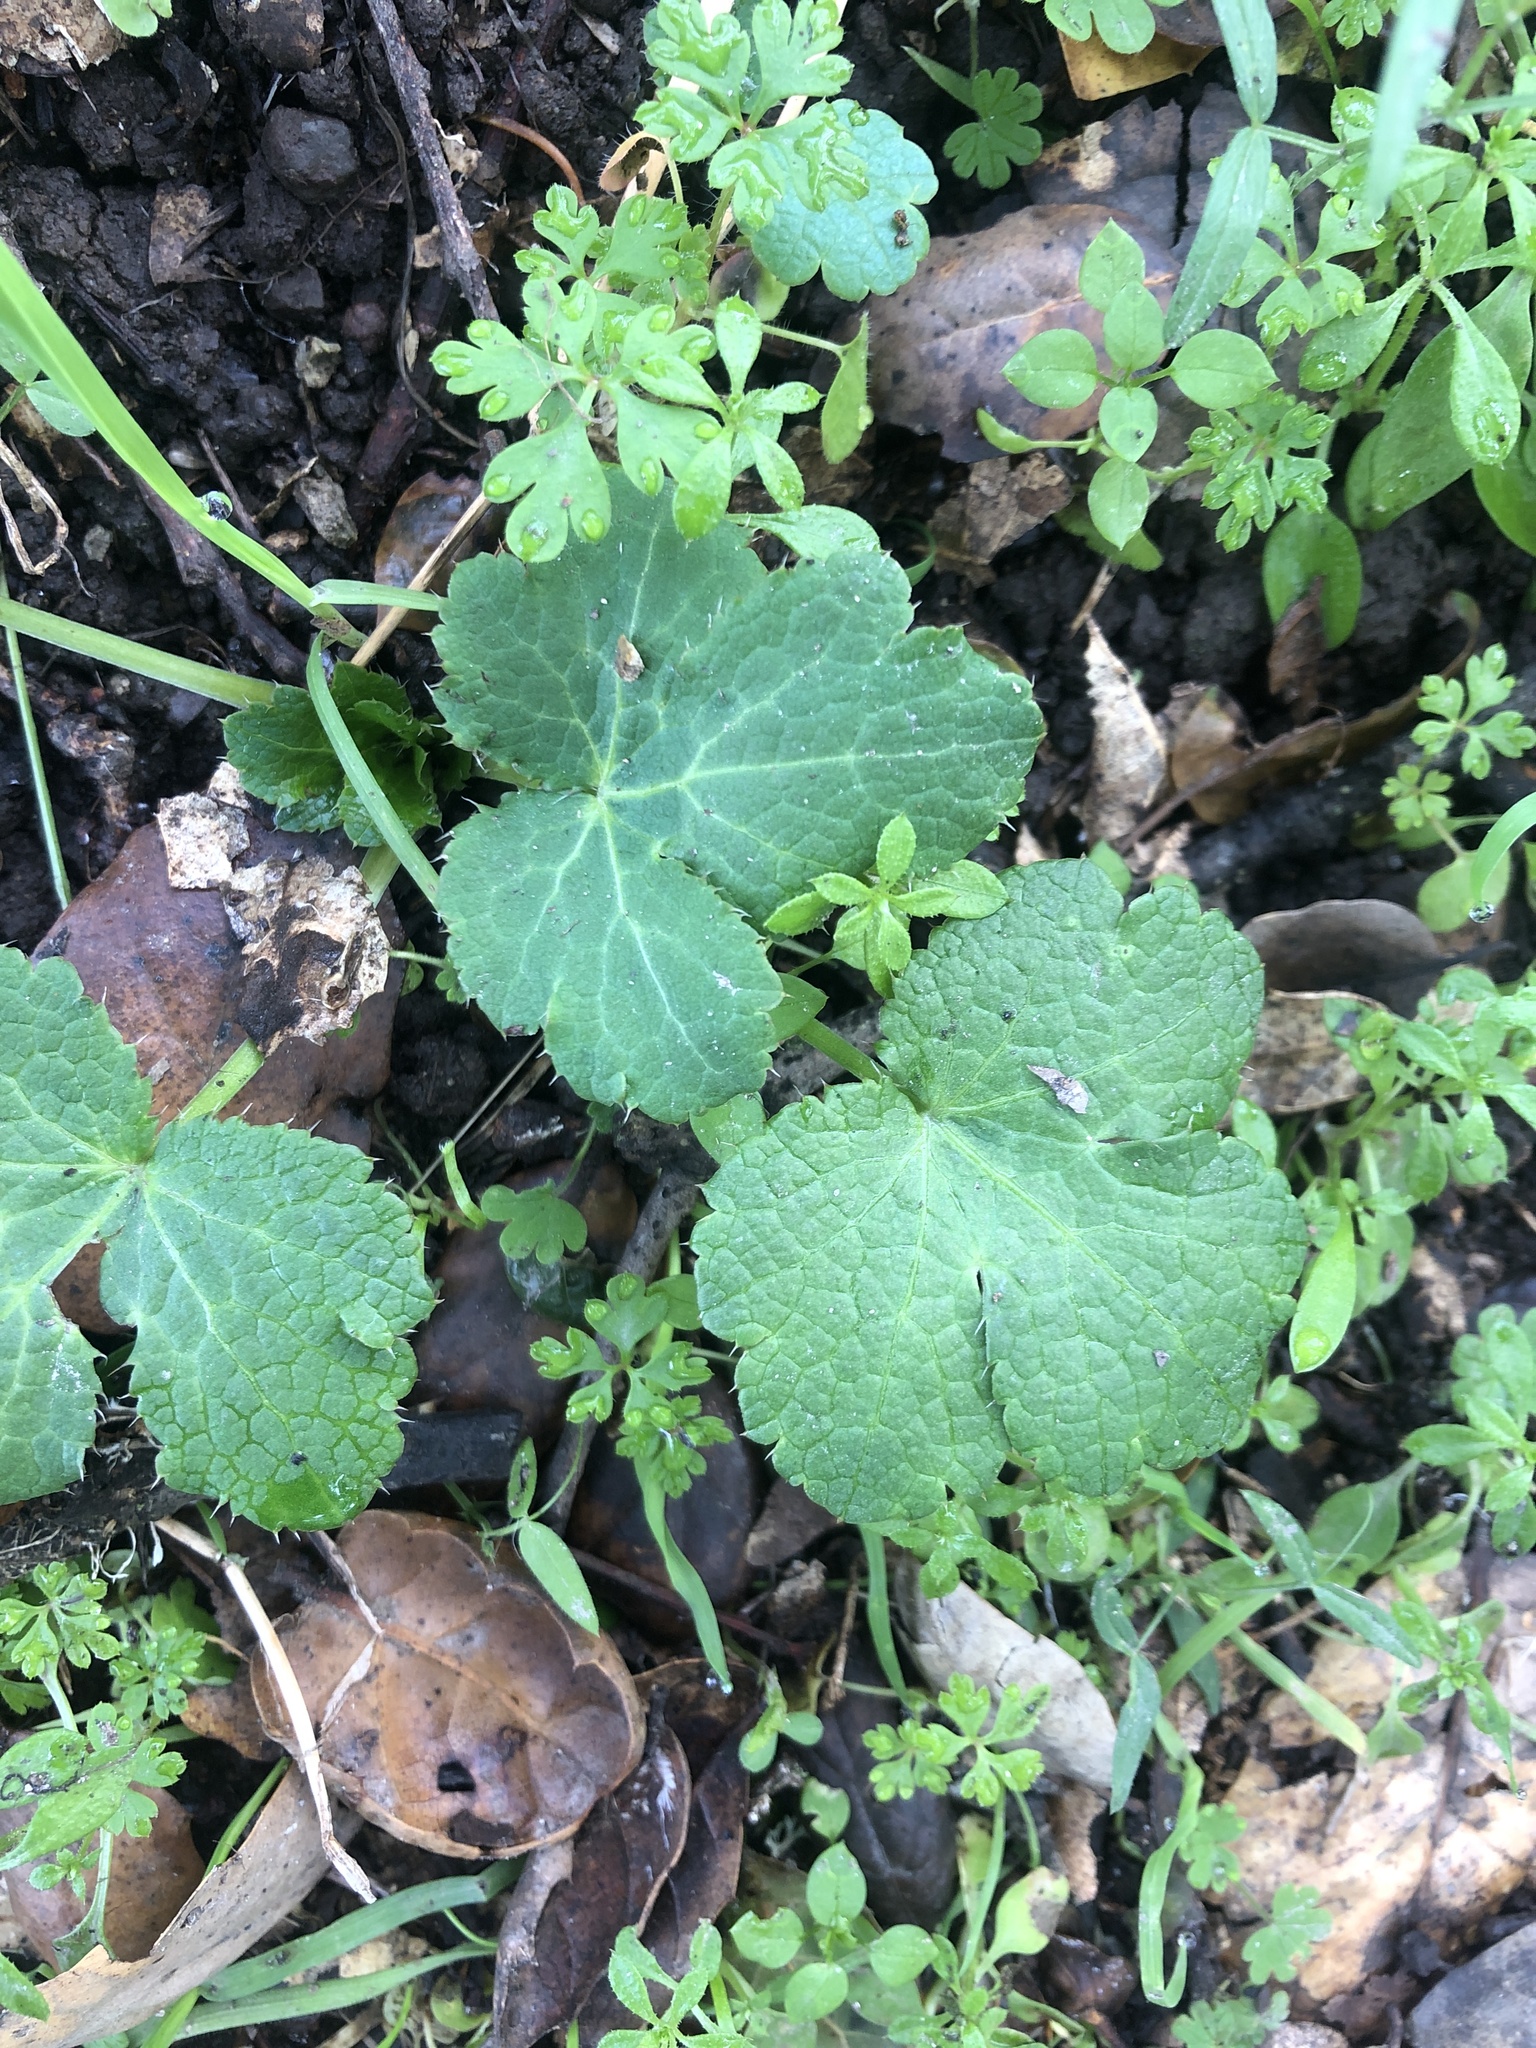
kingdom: Plantae
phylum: Tracheophyta
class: Magnoliopsida
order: Apiales
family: Apiaceae
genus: Sanicula
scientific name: Sanicula crassicaulis
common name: Western snakeroot
